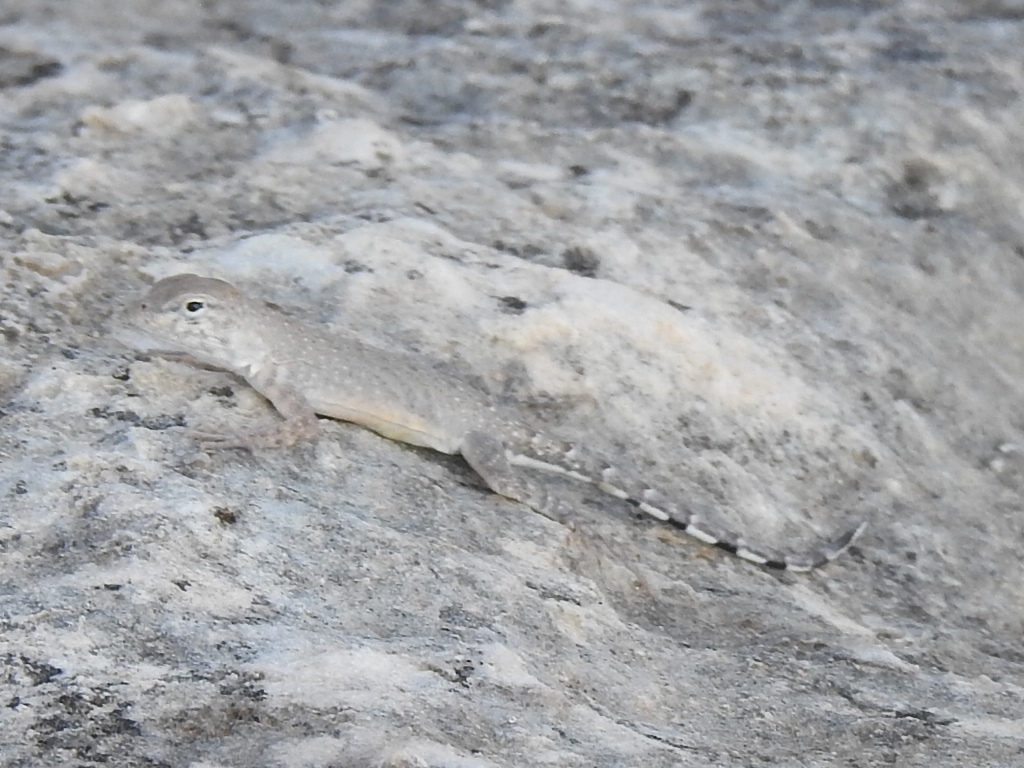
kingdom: Animalia
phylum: Chordata
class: Squamata
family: Phrynosomatidae
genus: Cophosaurus
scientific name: Cophosaurus texanus
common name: Greater earless lizard
